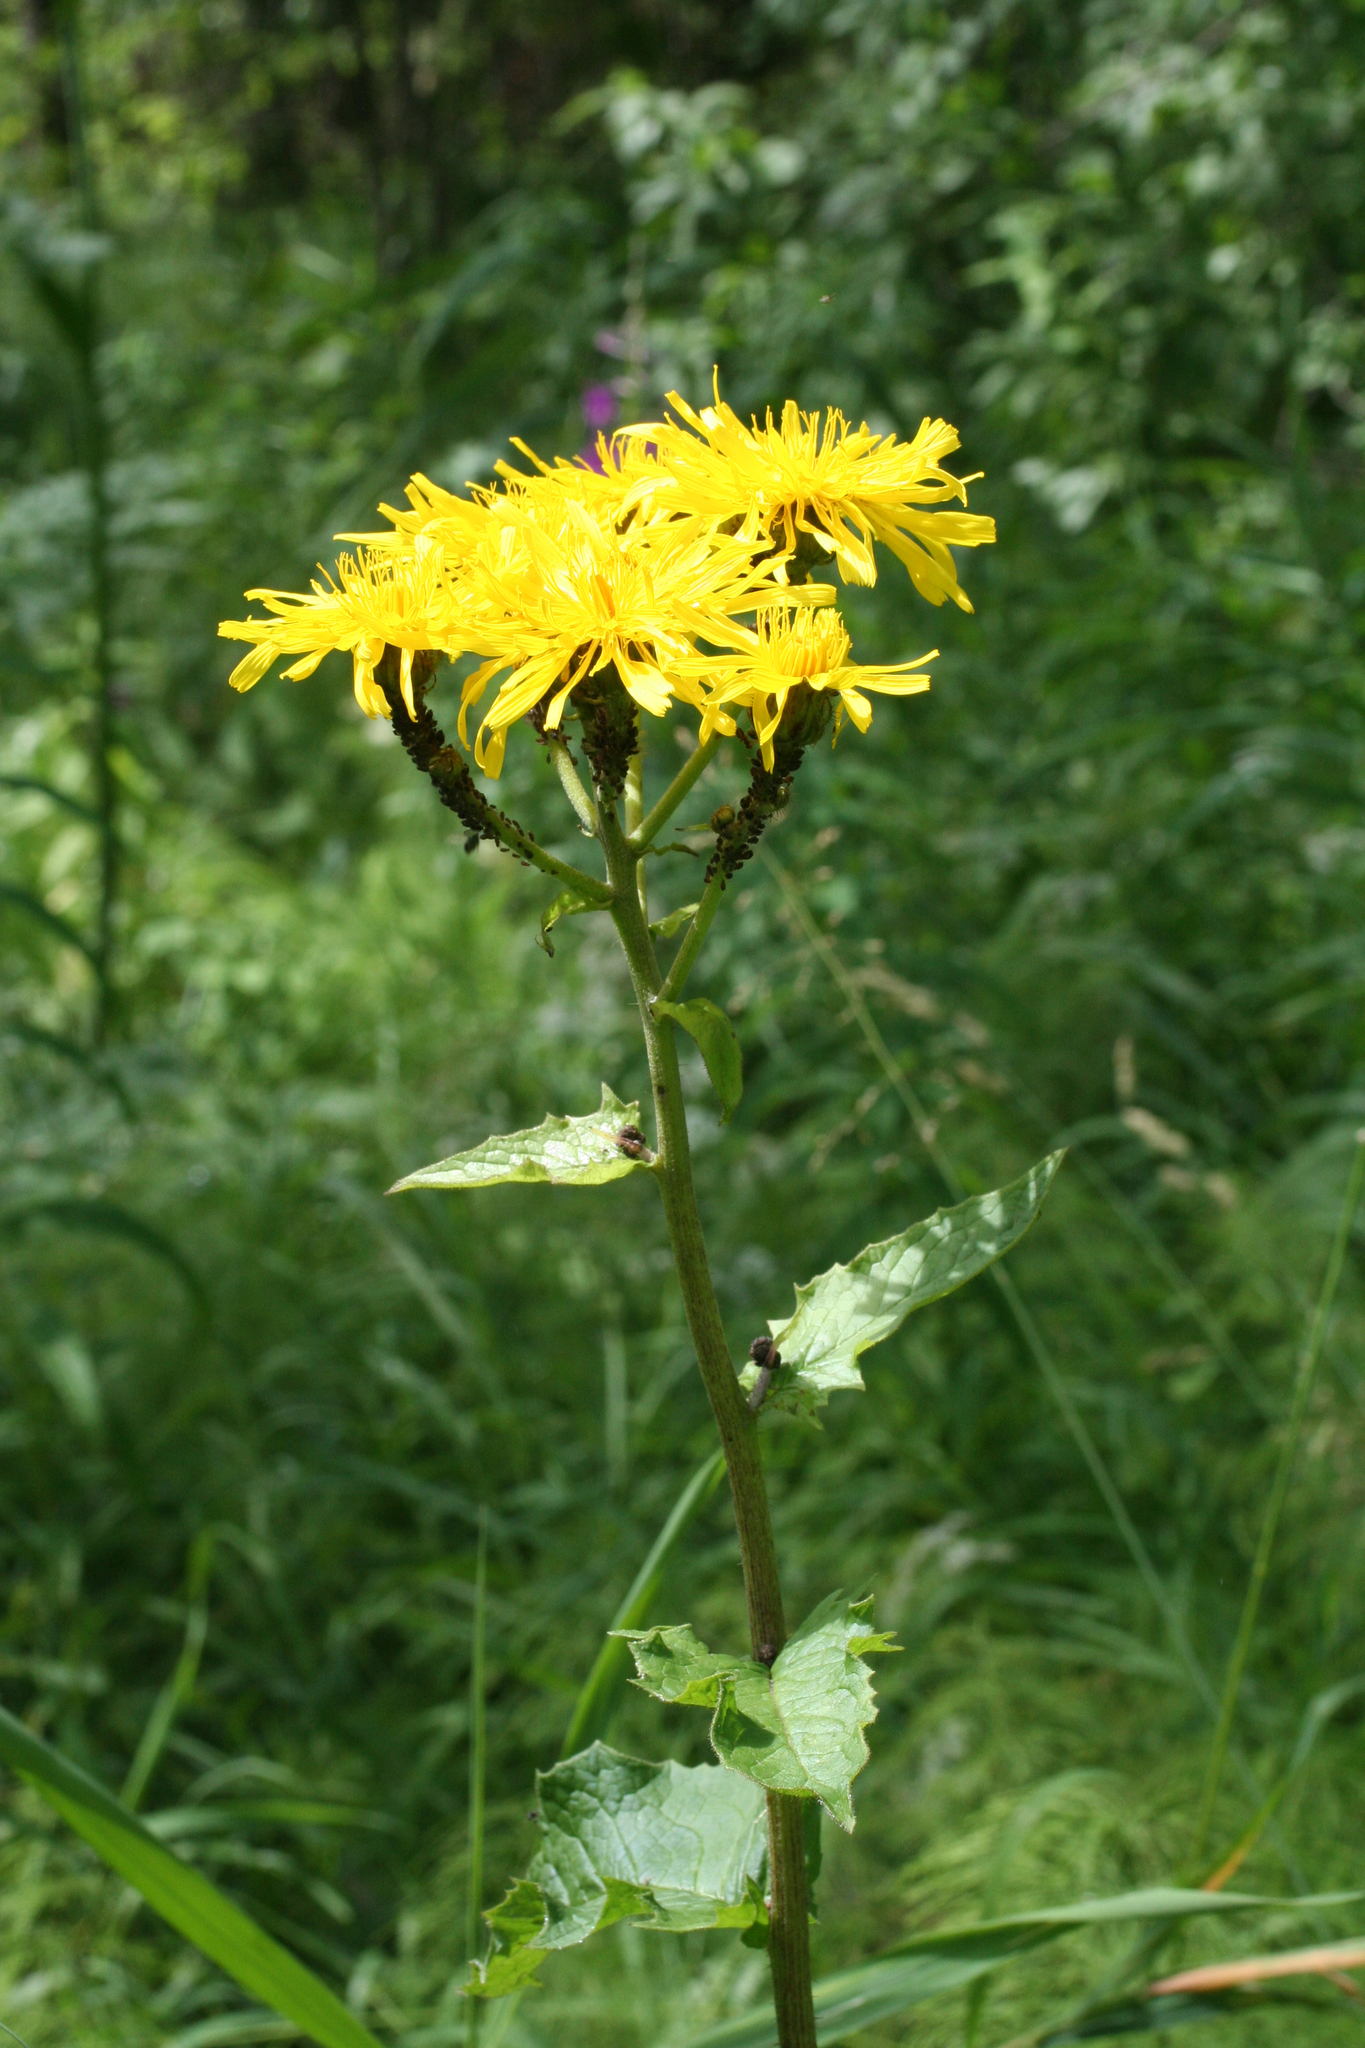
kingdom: Plantae
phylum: Tracheophyta
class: Magnoliopsida
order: Asterales
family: Asteraceae
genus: Crepis
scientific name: Crepis sibirica
